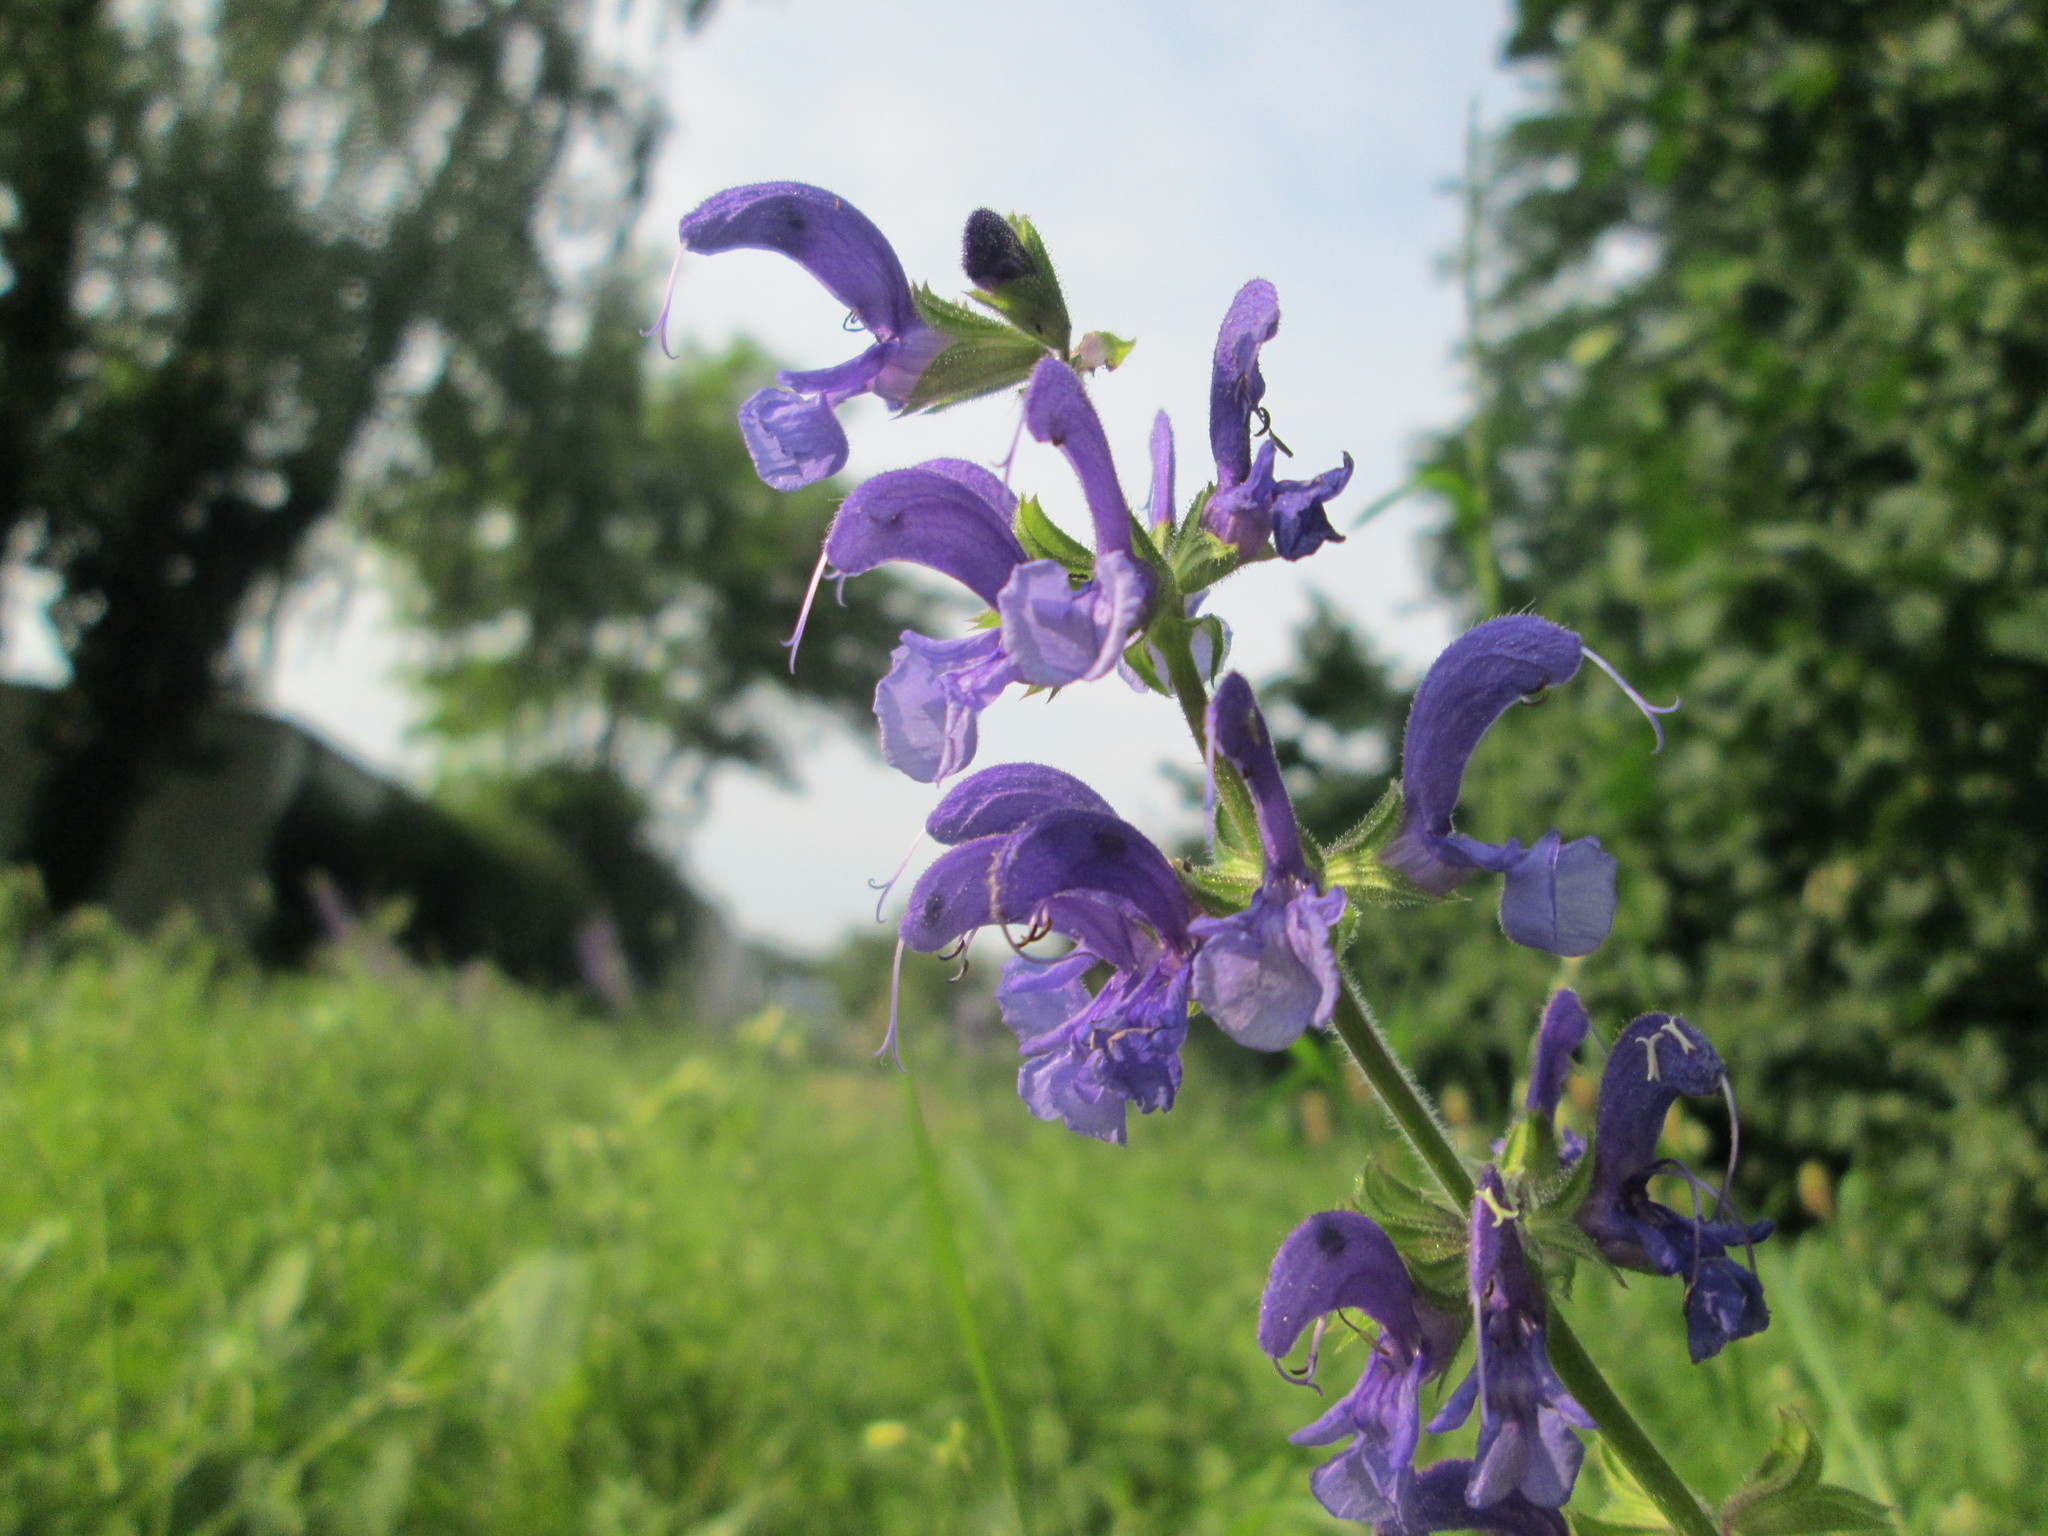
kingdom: Plantae
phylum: Tracheophyta
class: Magnoliopsida
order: Lamiales
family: Lamiaceae
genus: Salvia
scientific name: Salvia pratensis
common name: Meadow sage
